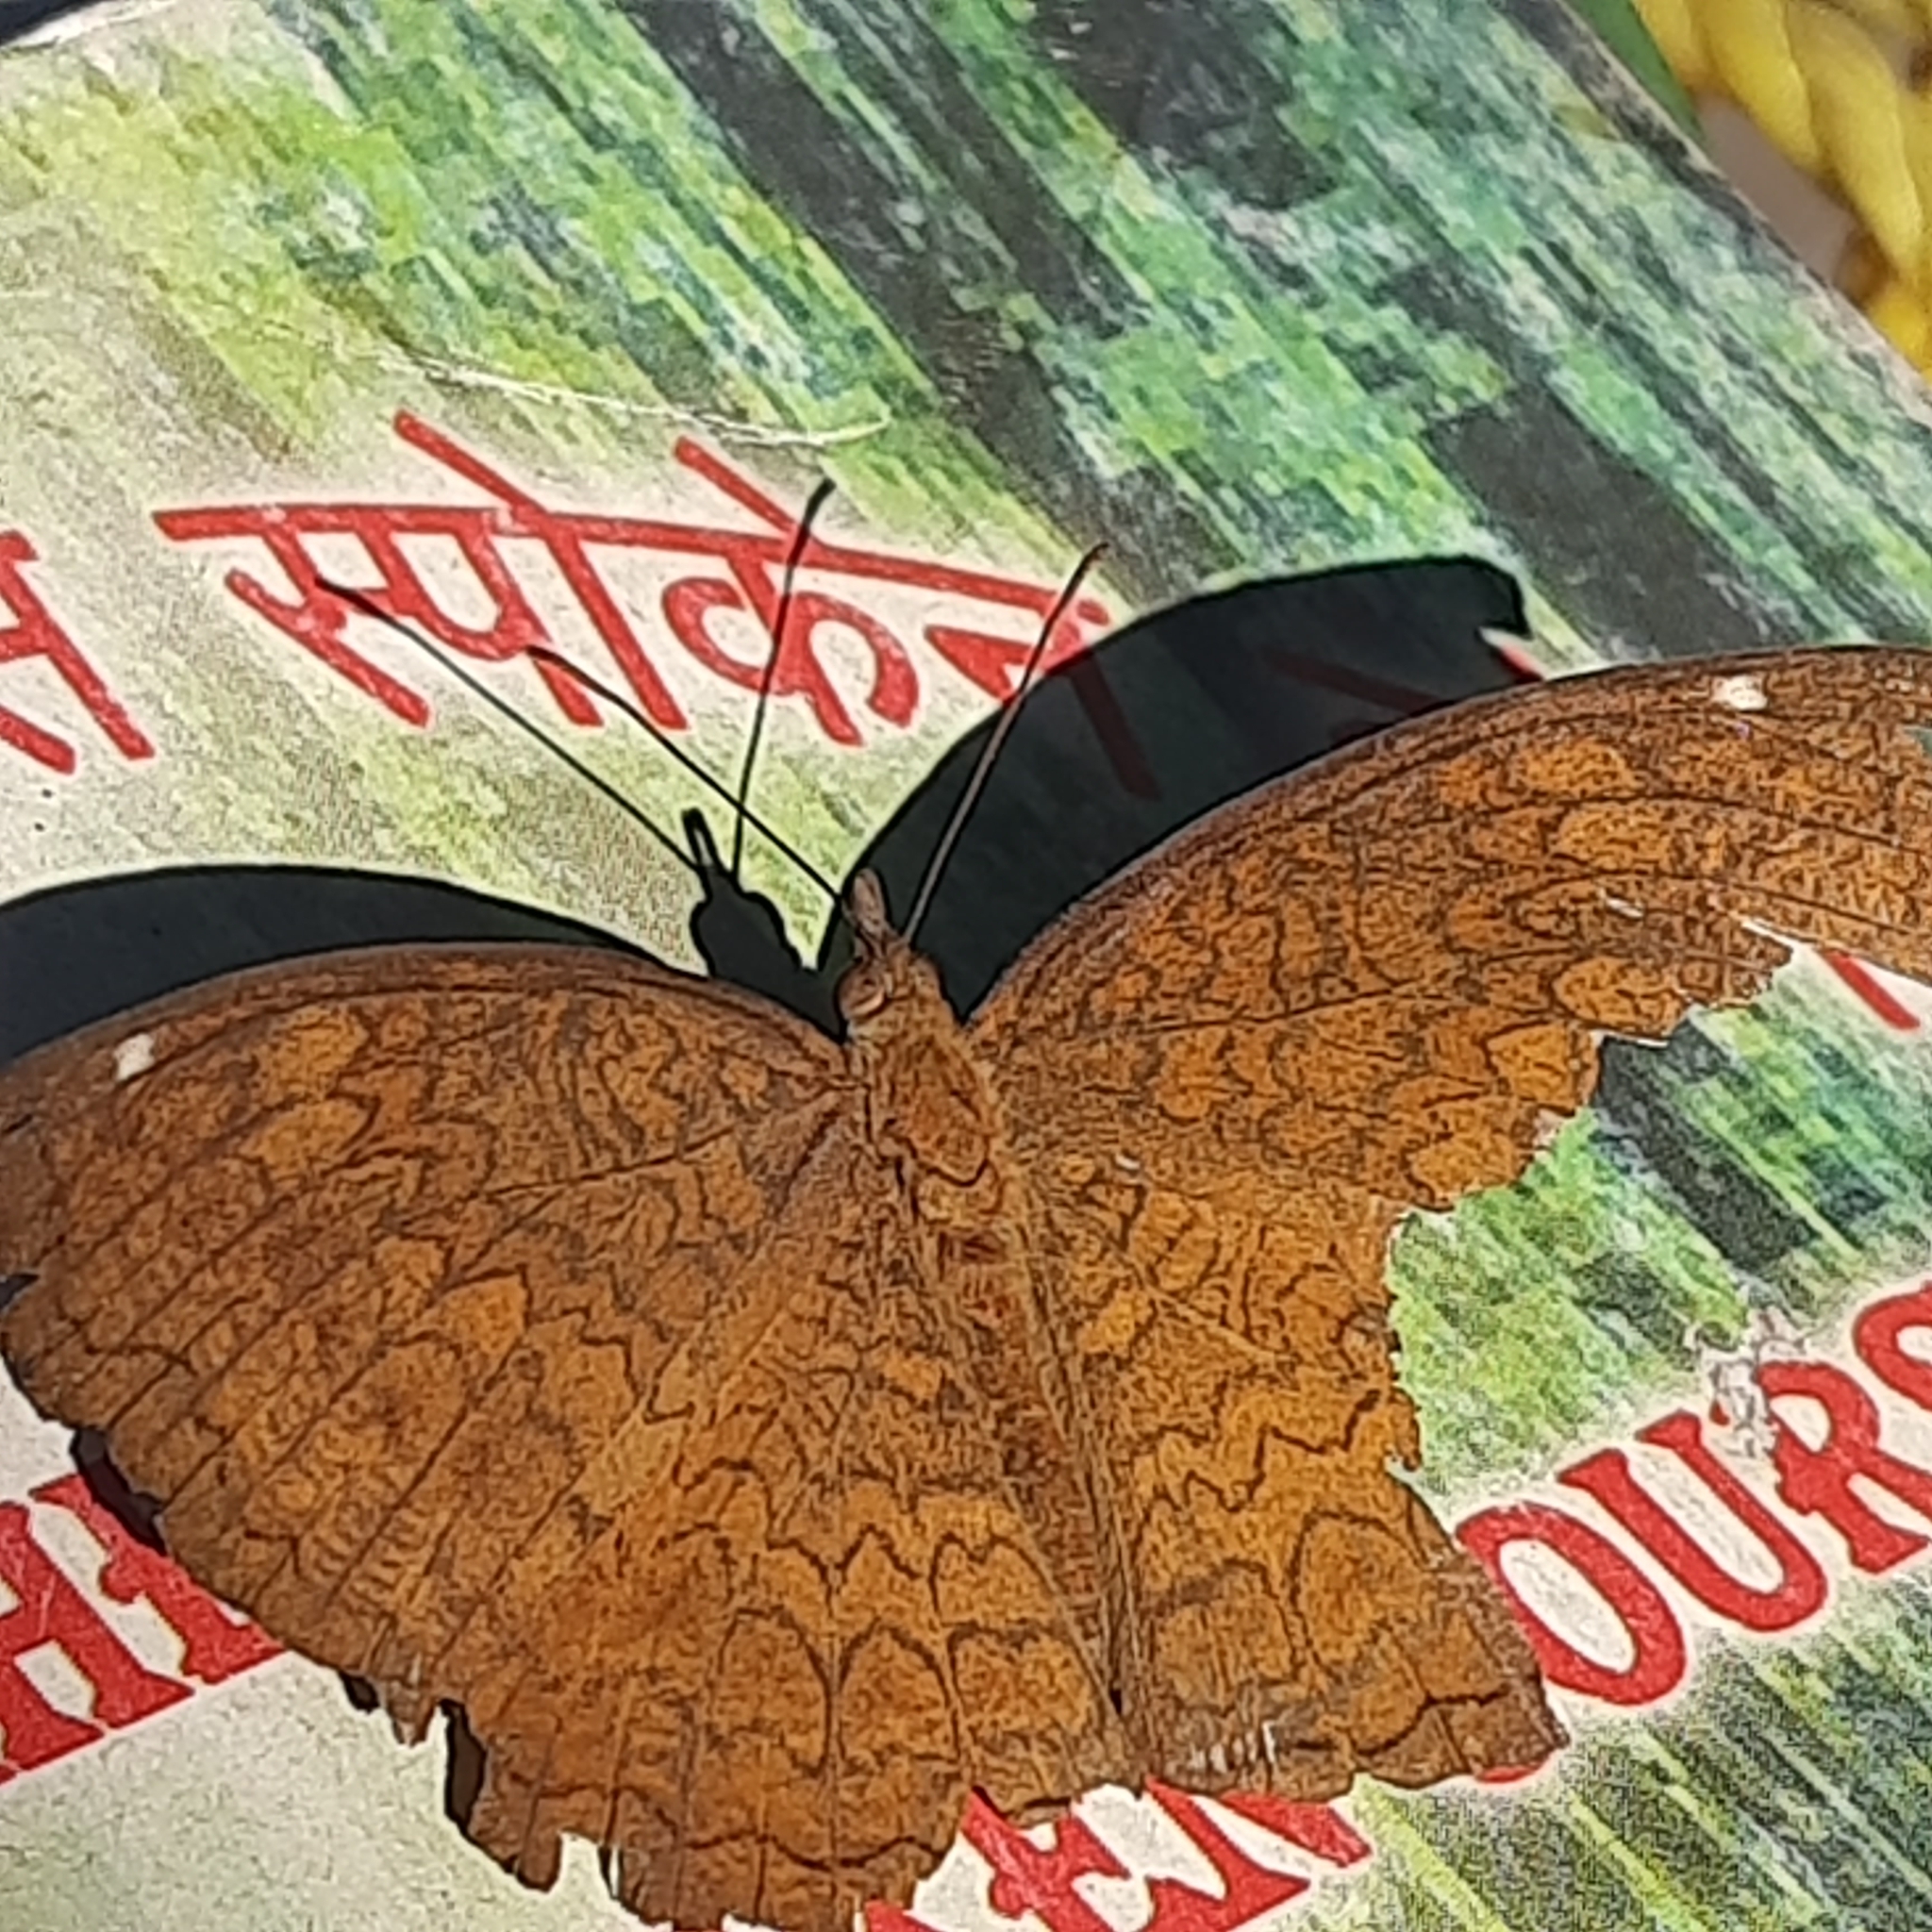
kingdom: Animalia
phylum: Arthropoda
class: Insecta
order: Lepidoptera
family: Nymphalidae
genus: Ariadne
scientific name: Ariadne merione
